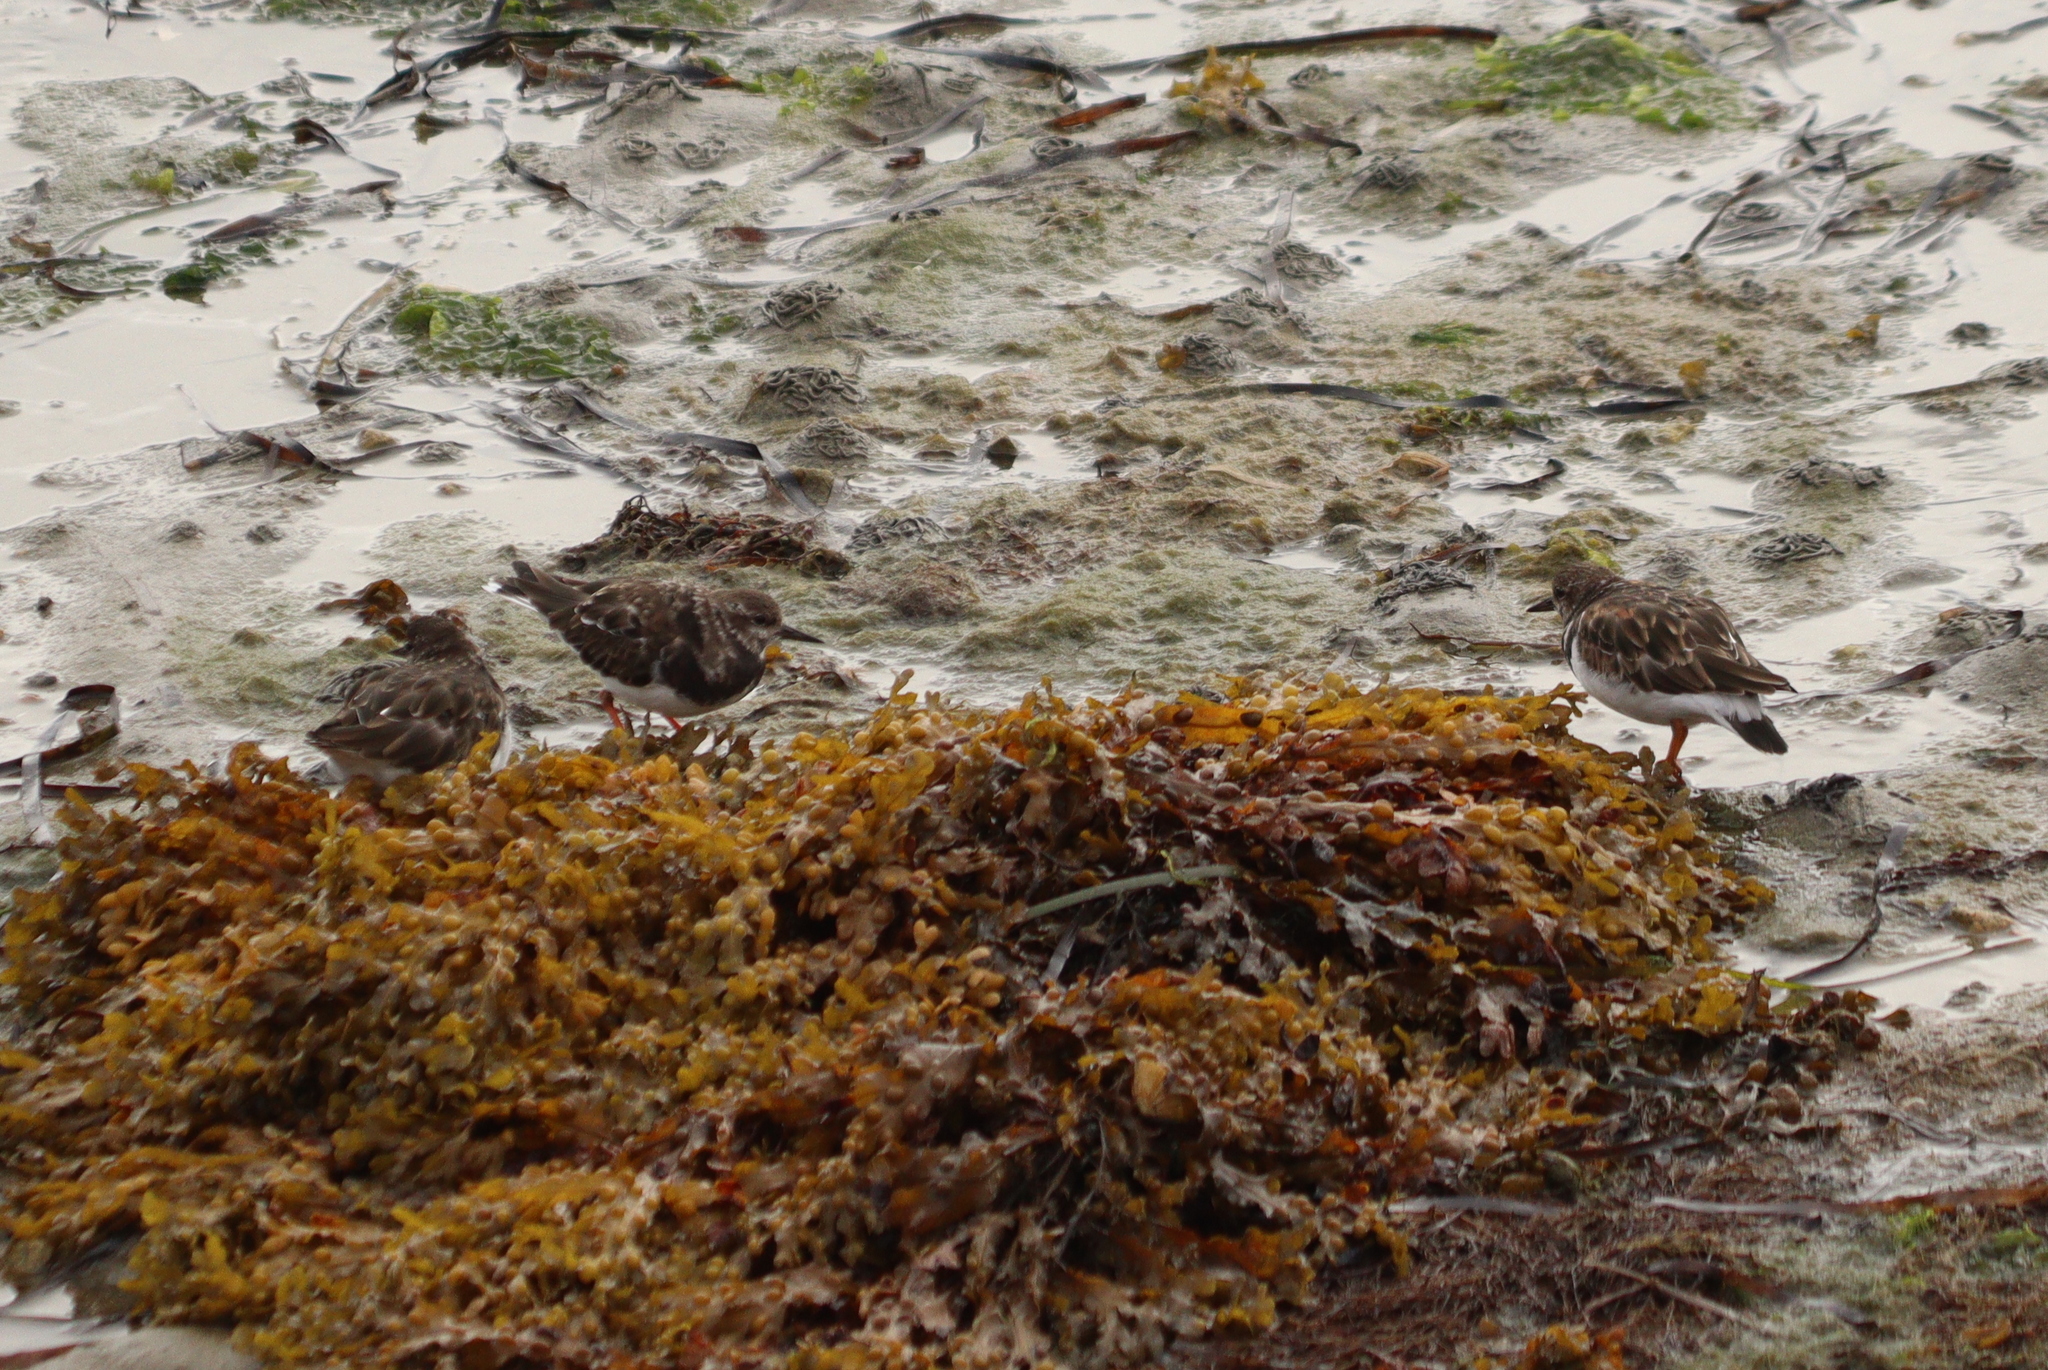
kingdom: Animalia
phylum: Chordata
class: Aves
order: Charadriiformes
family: Scolopacidae
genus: Arenaria
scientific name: Arenaria interpres
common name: Ruddy turnstone
